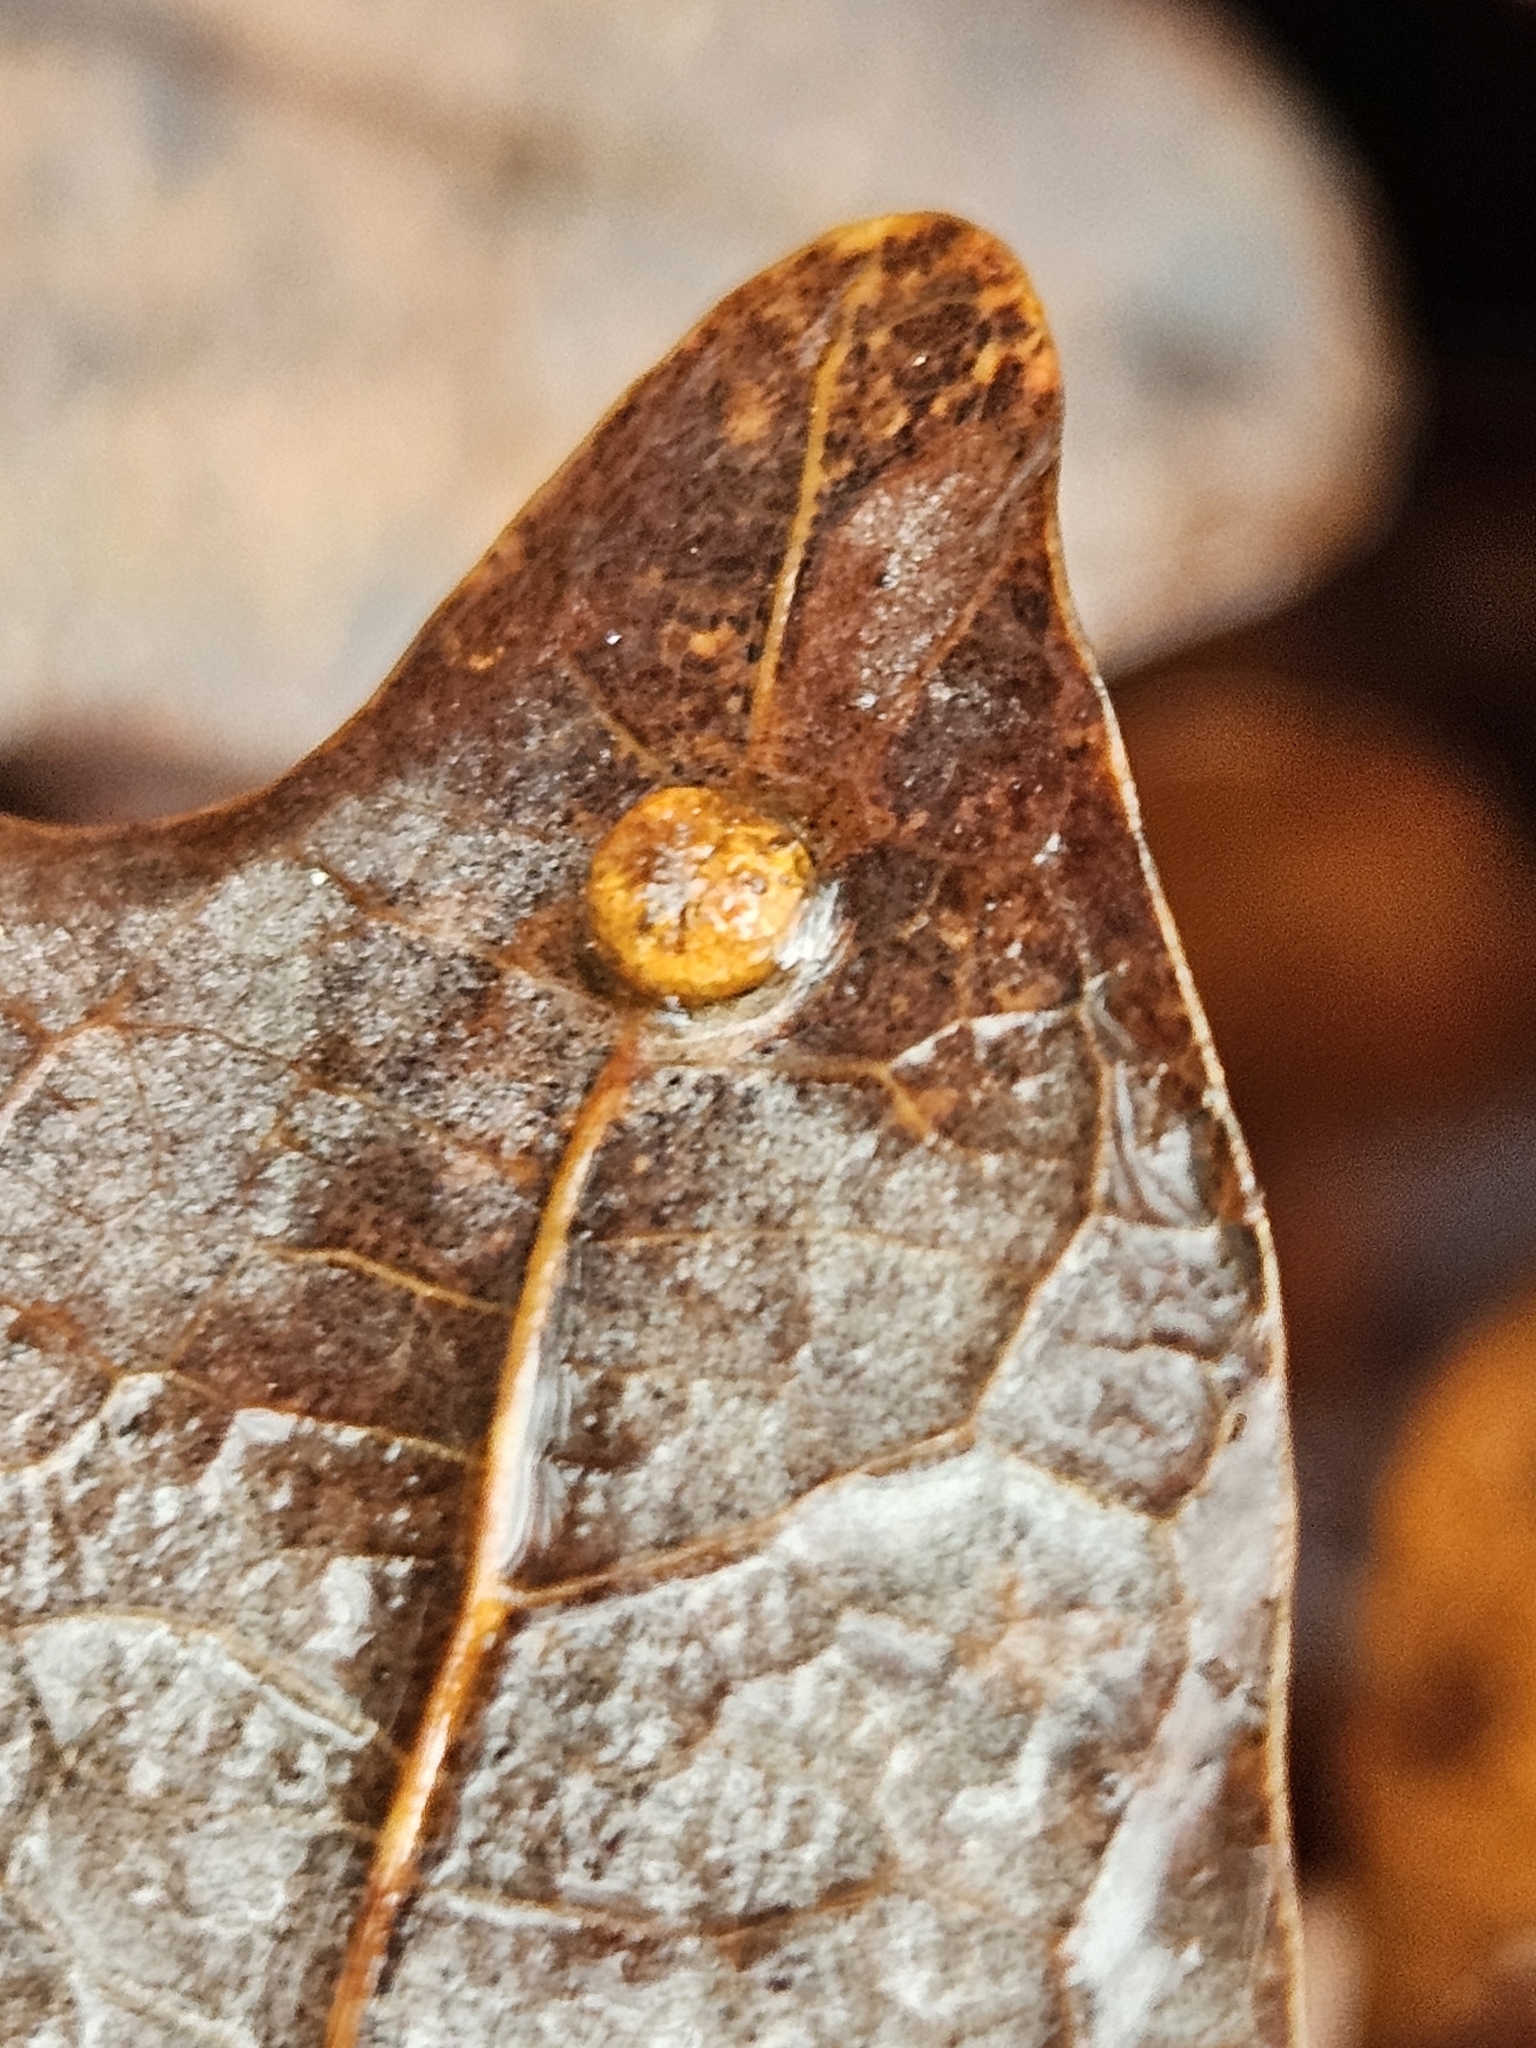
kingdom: Animalia
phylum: Arthropoda
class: Insecta
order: Diptera
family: Cecidomyiidae
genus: Polystepha
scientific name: Polystepha globosa
